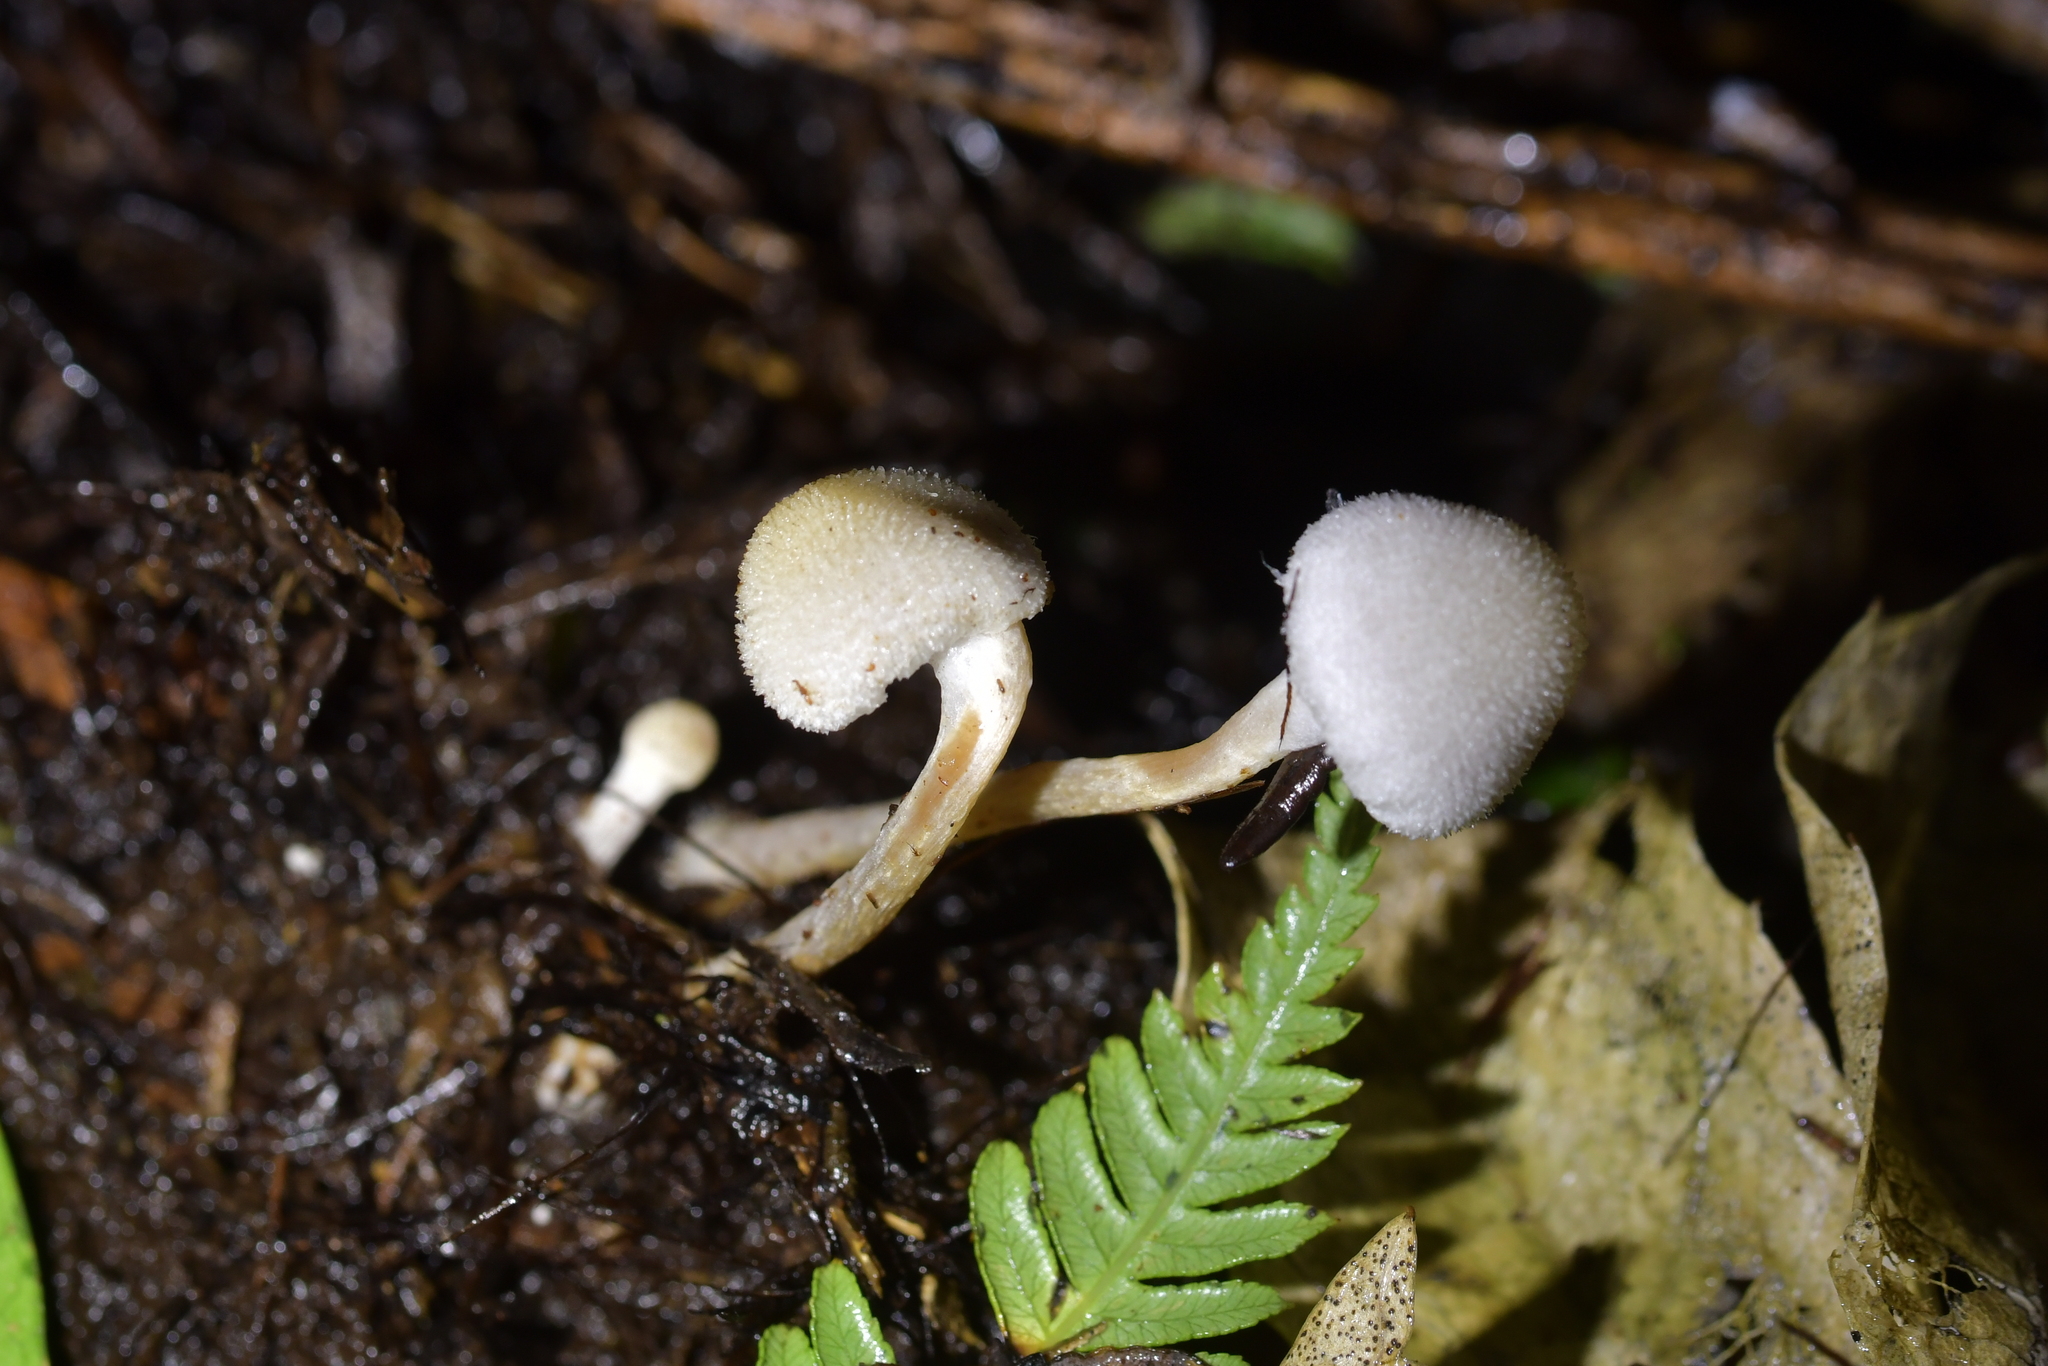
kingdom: Fungi
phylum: Basidiomycota
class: Agaricomycetes
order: Agaricales
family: Bolbitiaceae
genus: Tympanella
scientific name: Tympanella galanthina
